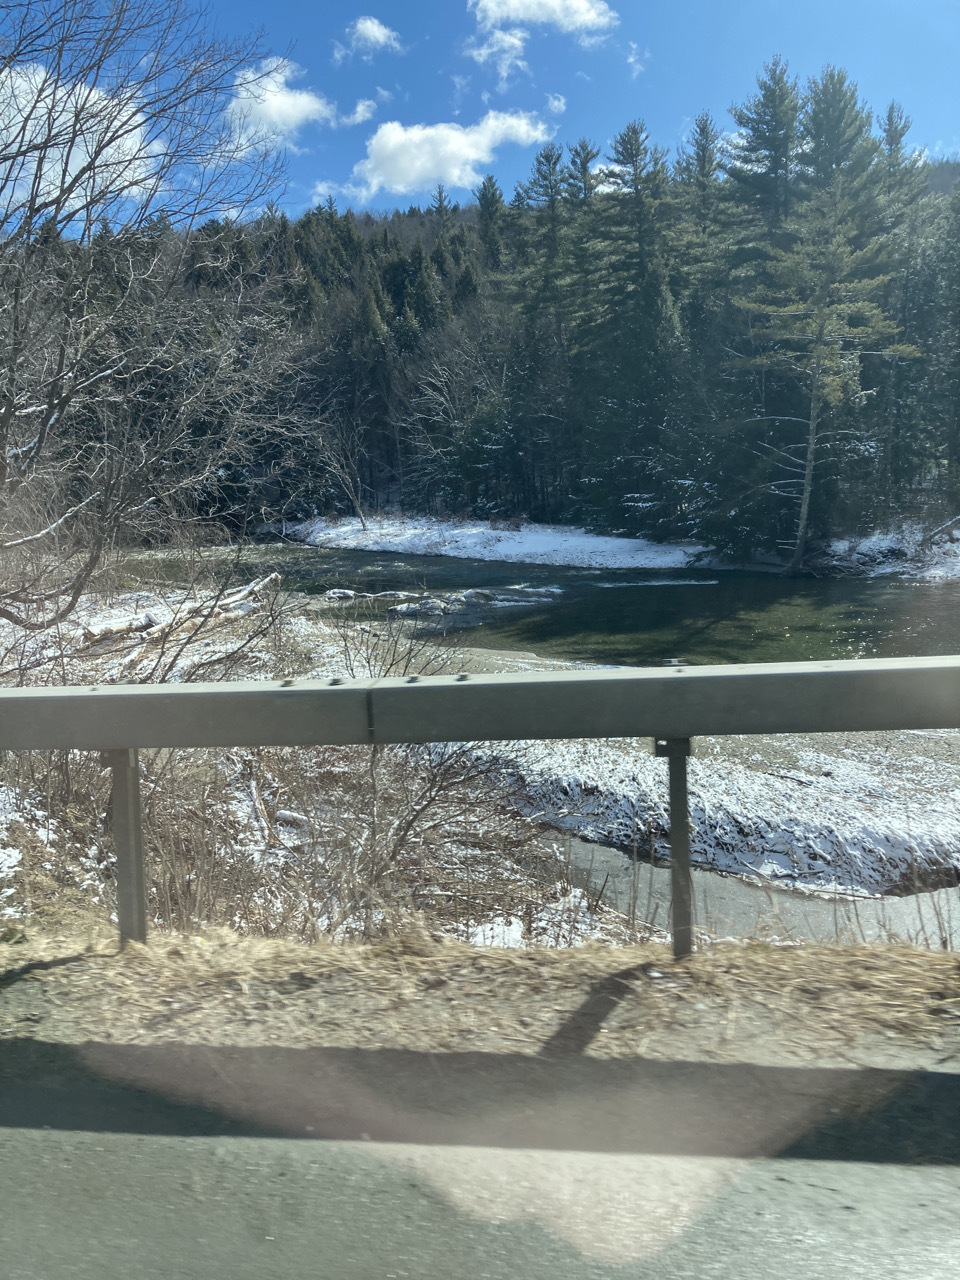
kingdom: Plantae
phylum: Tracheophyta
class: Pinopsida
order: Pinales
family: Pinaceae
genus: Pinus
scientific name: Pinus strobus
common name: Weymouth pine
